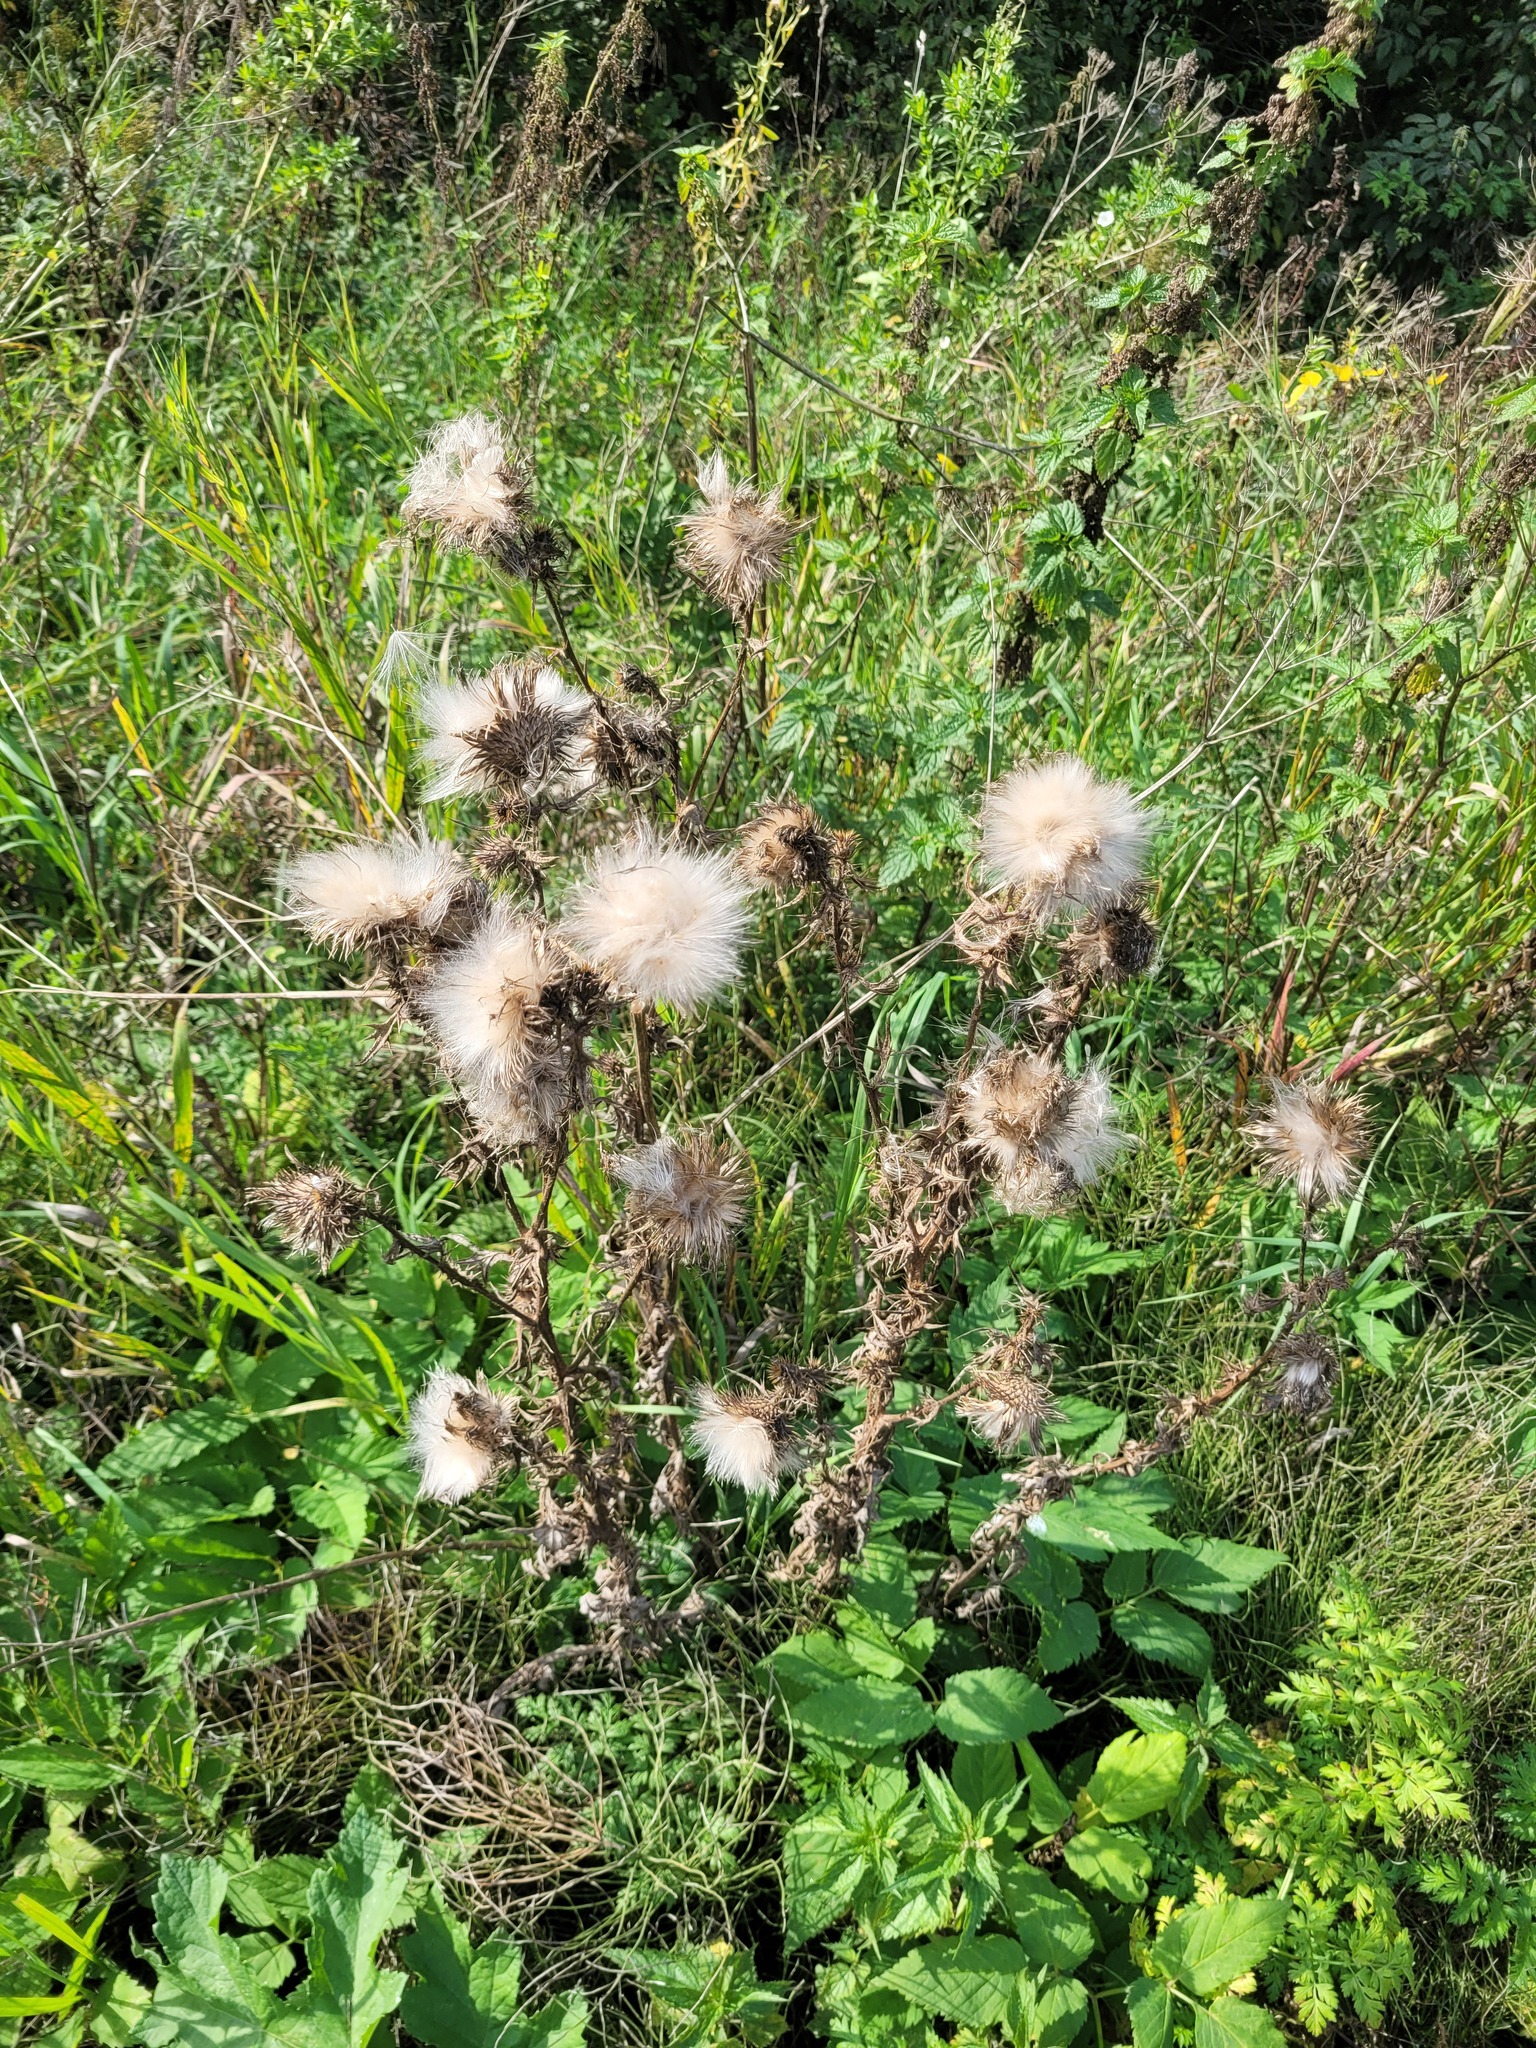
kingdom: Plantae
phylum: Tracheophyta
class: Magnoliopsida
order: Asterales
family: Asteraceae
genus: Cirsium
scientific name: Cirsium vulgare
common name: Bull thistle
